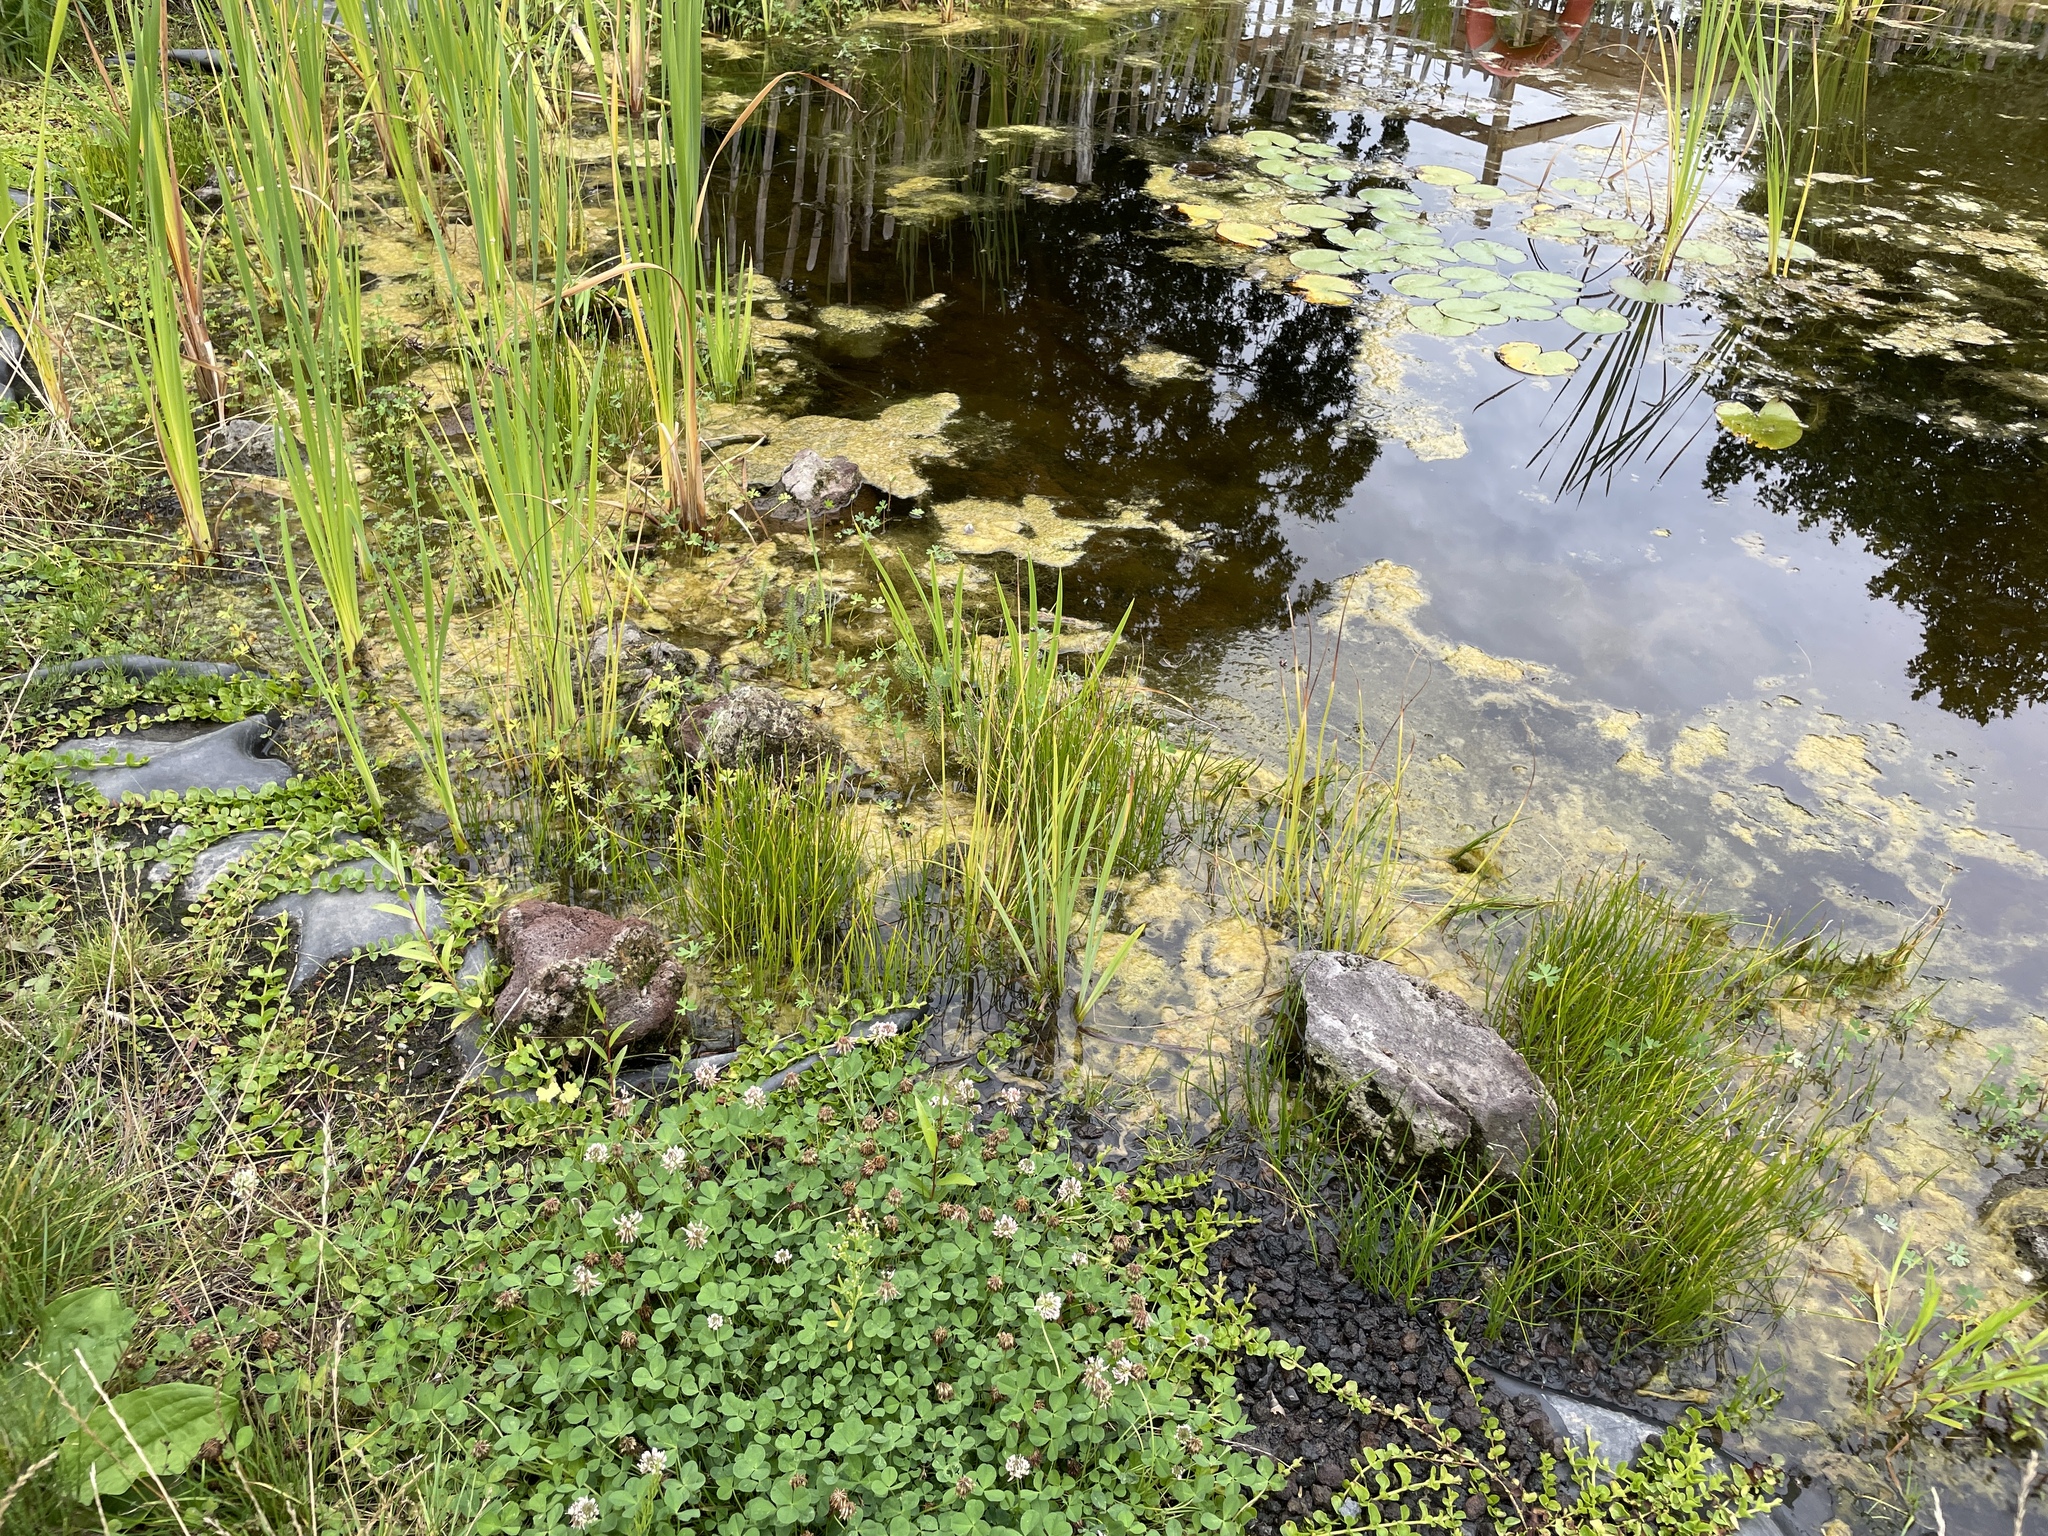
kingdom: Animalia
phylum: Arthropoda
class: Insecta
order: Hymenoptera
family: Vespidae
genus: Vespa
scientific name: Vespa velutina
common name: Asian hornet
